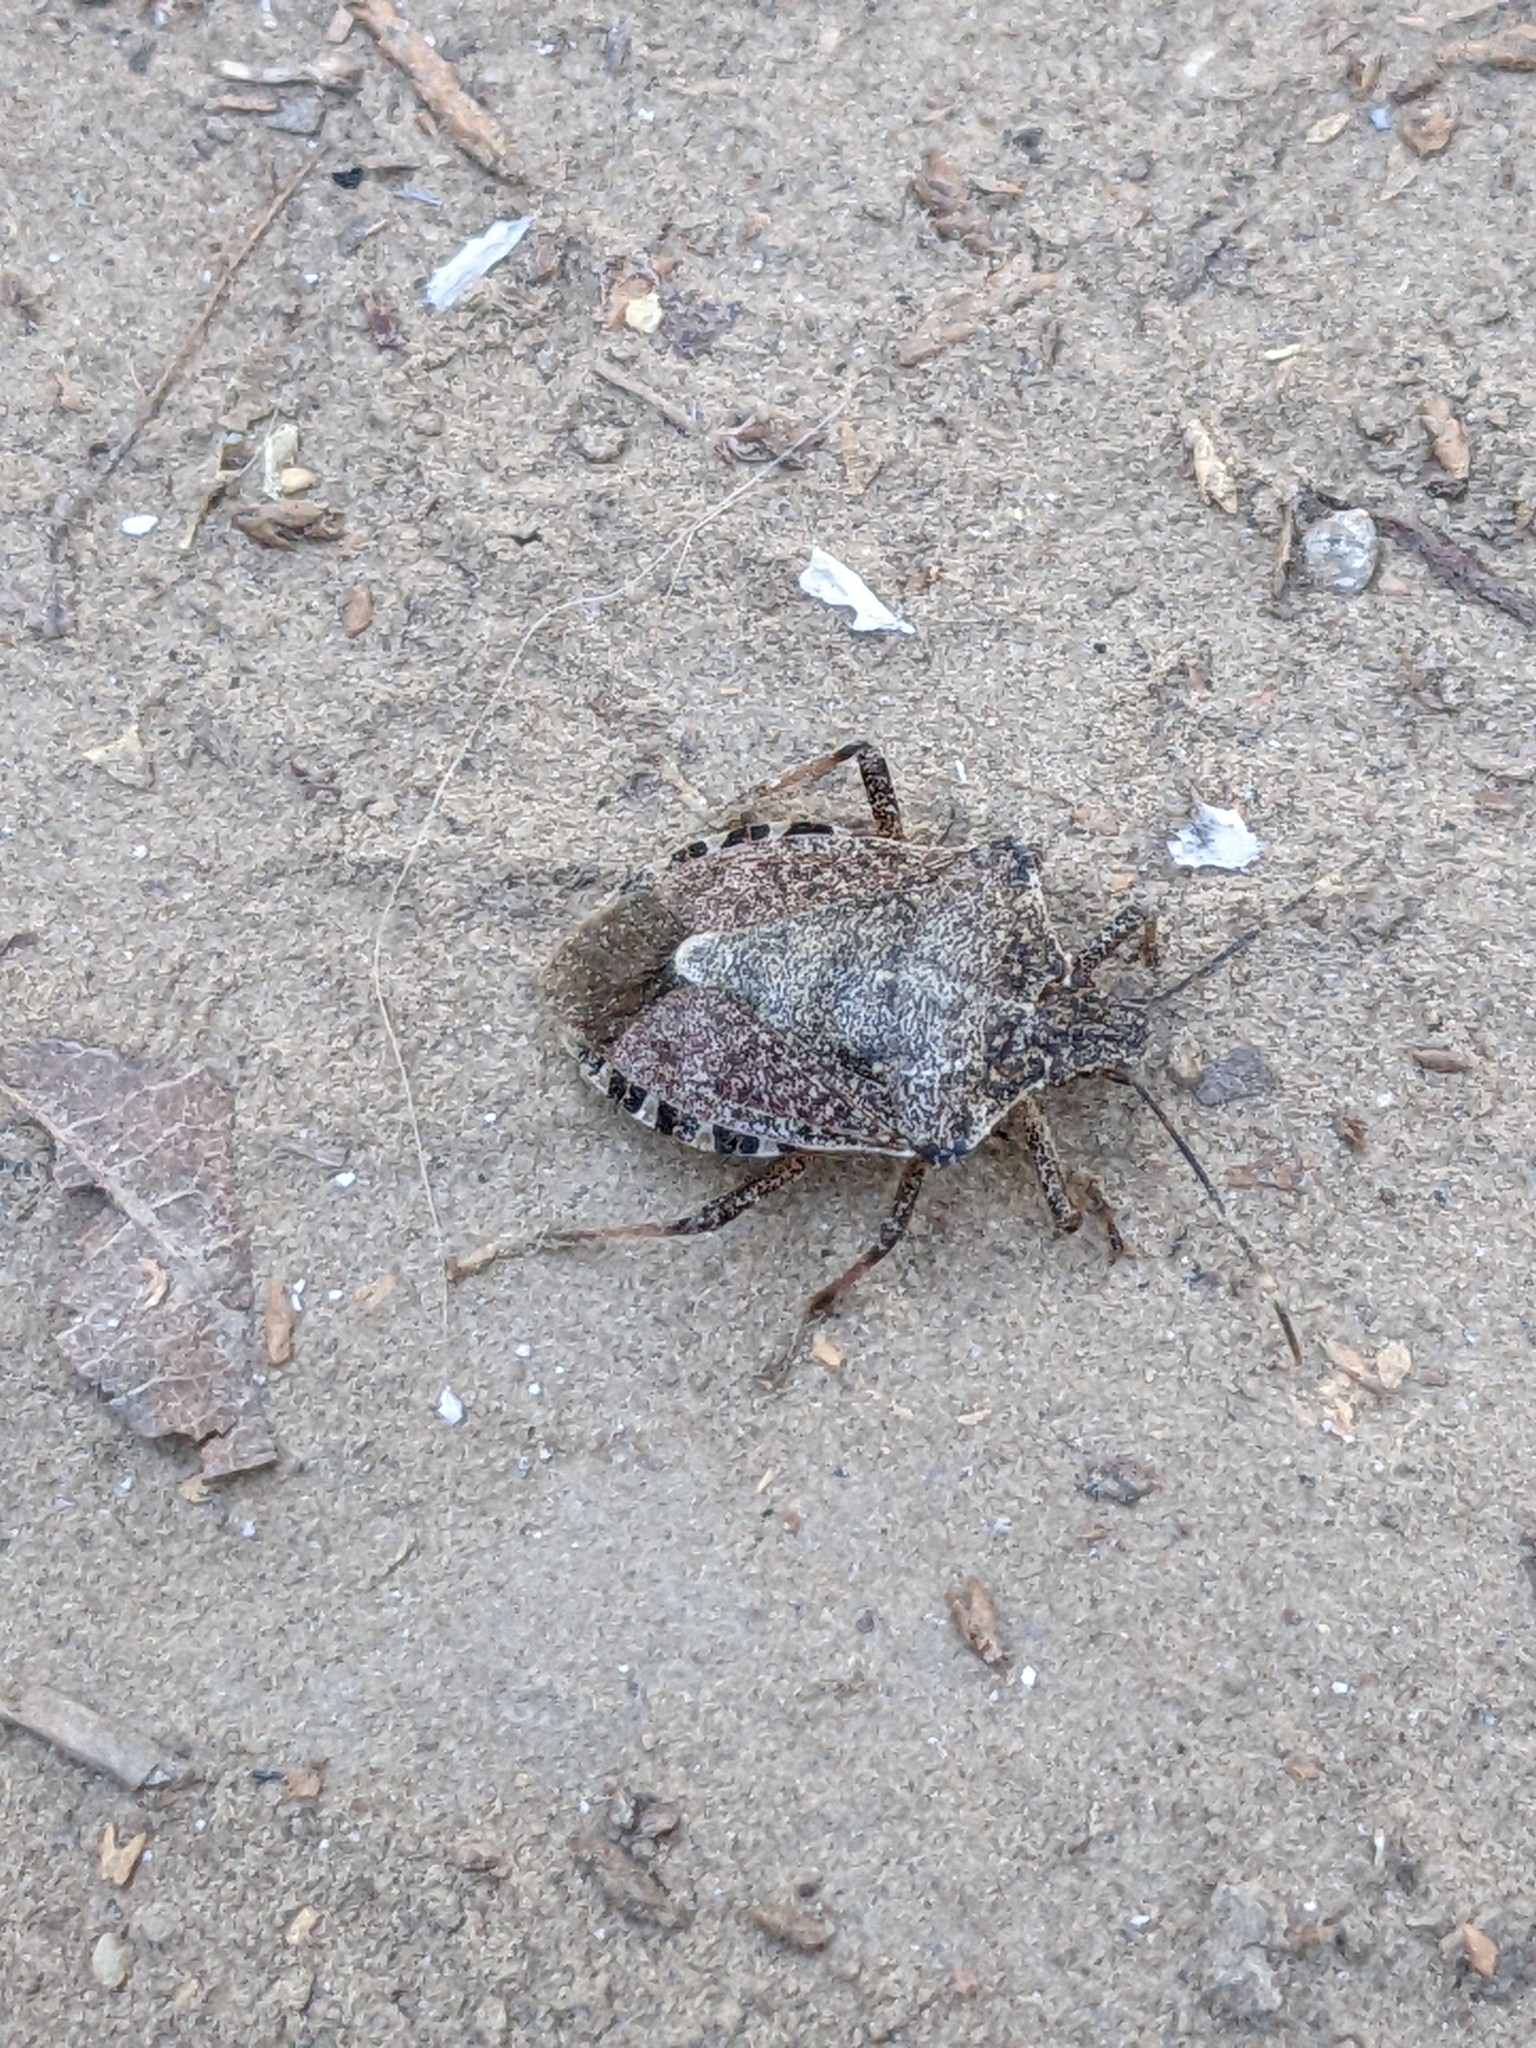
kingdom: Animalia
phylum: Arthropoda
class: Insecta
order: Hemiptera
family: Pentatomidae
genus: Halyomorpha
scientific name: Halyomorpha halys
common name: Brown marmorated stink bug
